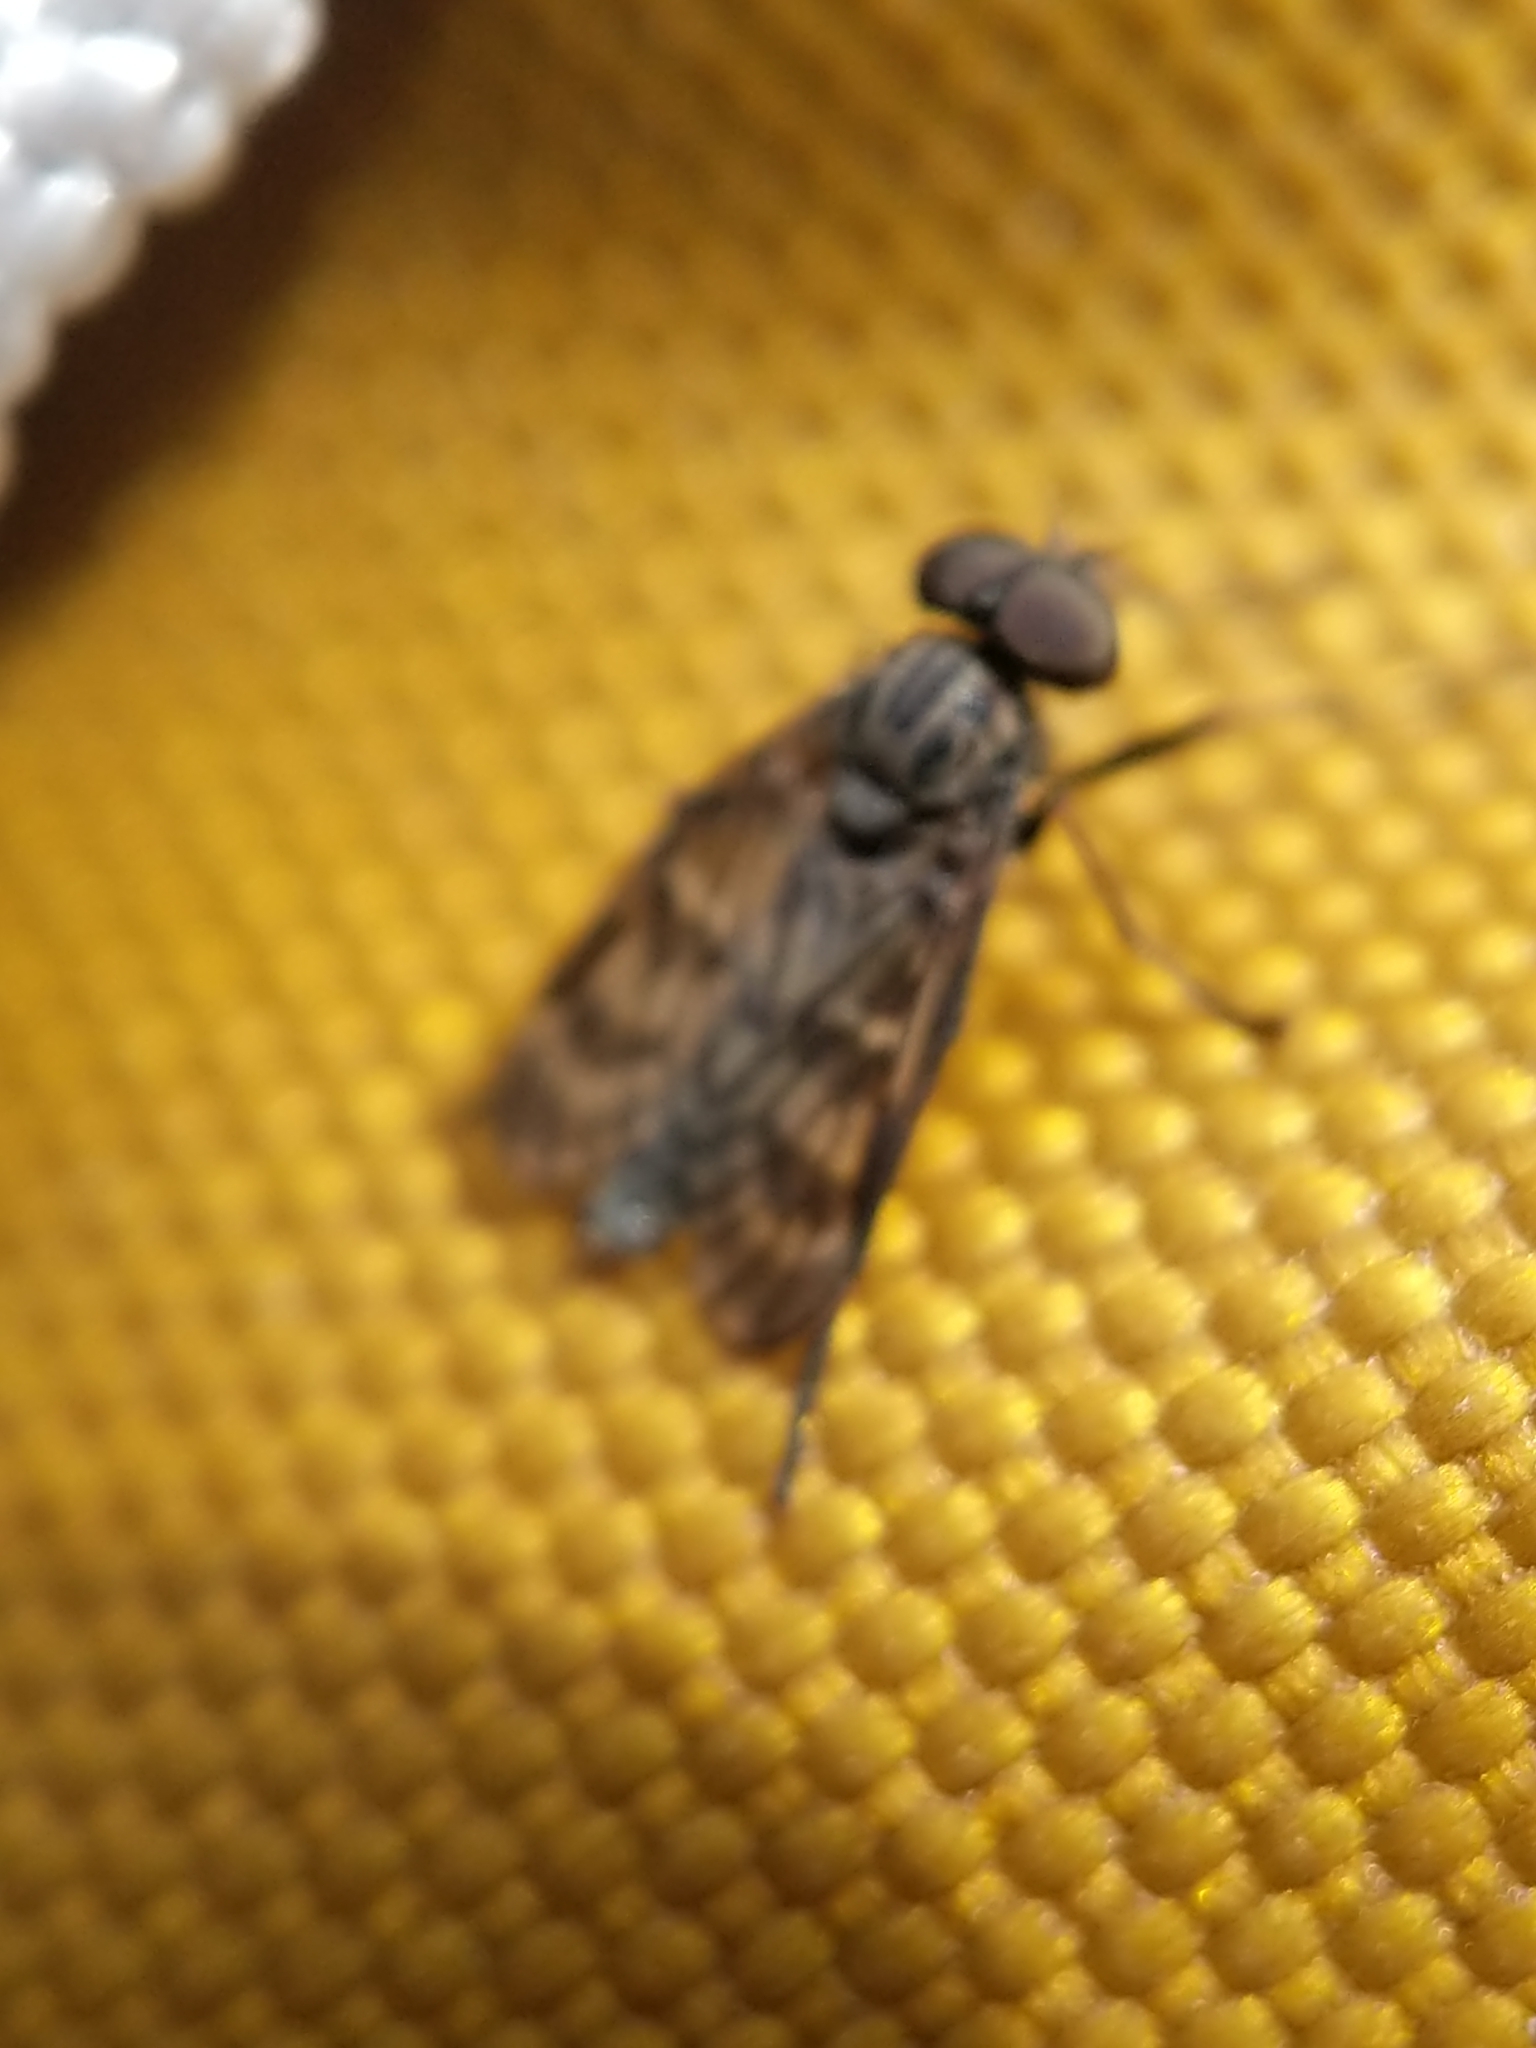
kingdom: Animalia
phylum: Arthropoda
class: Insecta
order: Diptera
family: Rhagionidae
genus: Rhagio
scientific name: Rhagio mystaceus
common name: Common snipe fly
